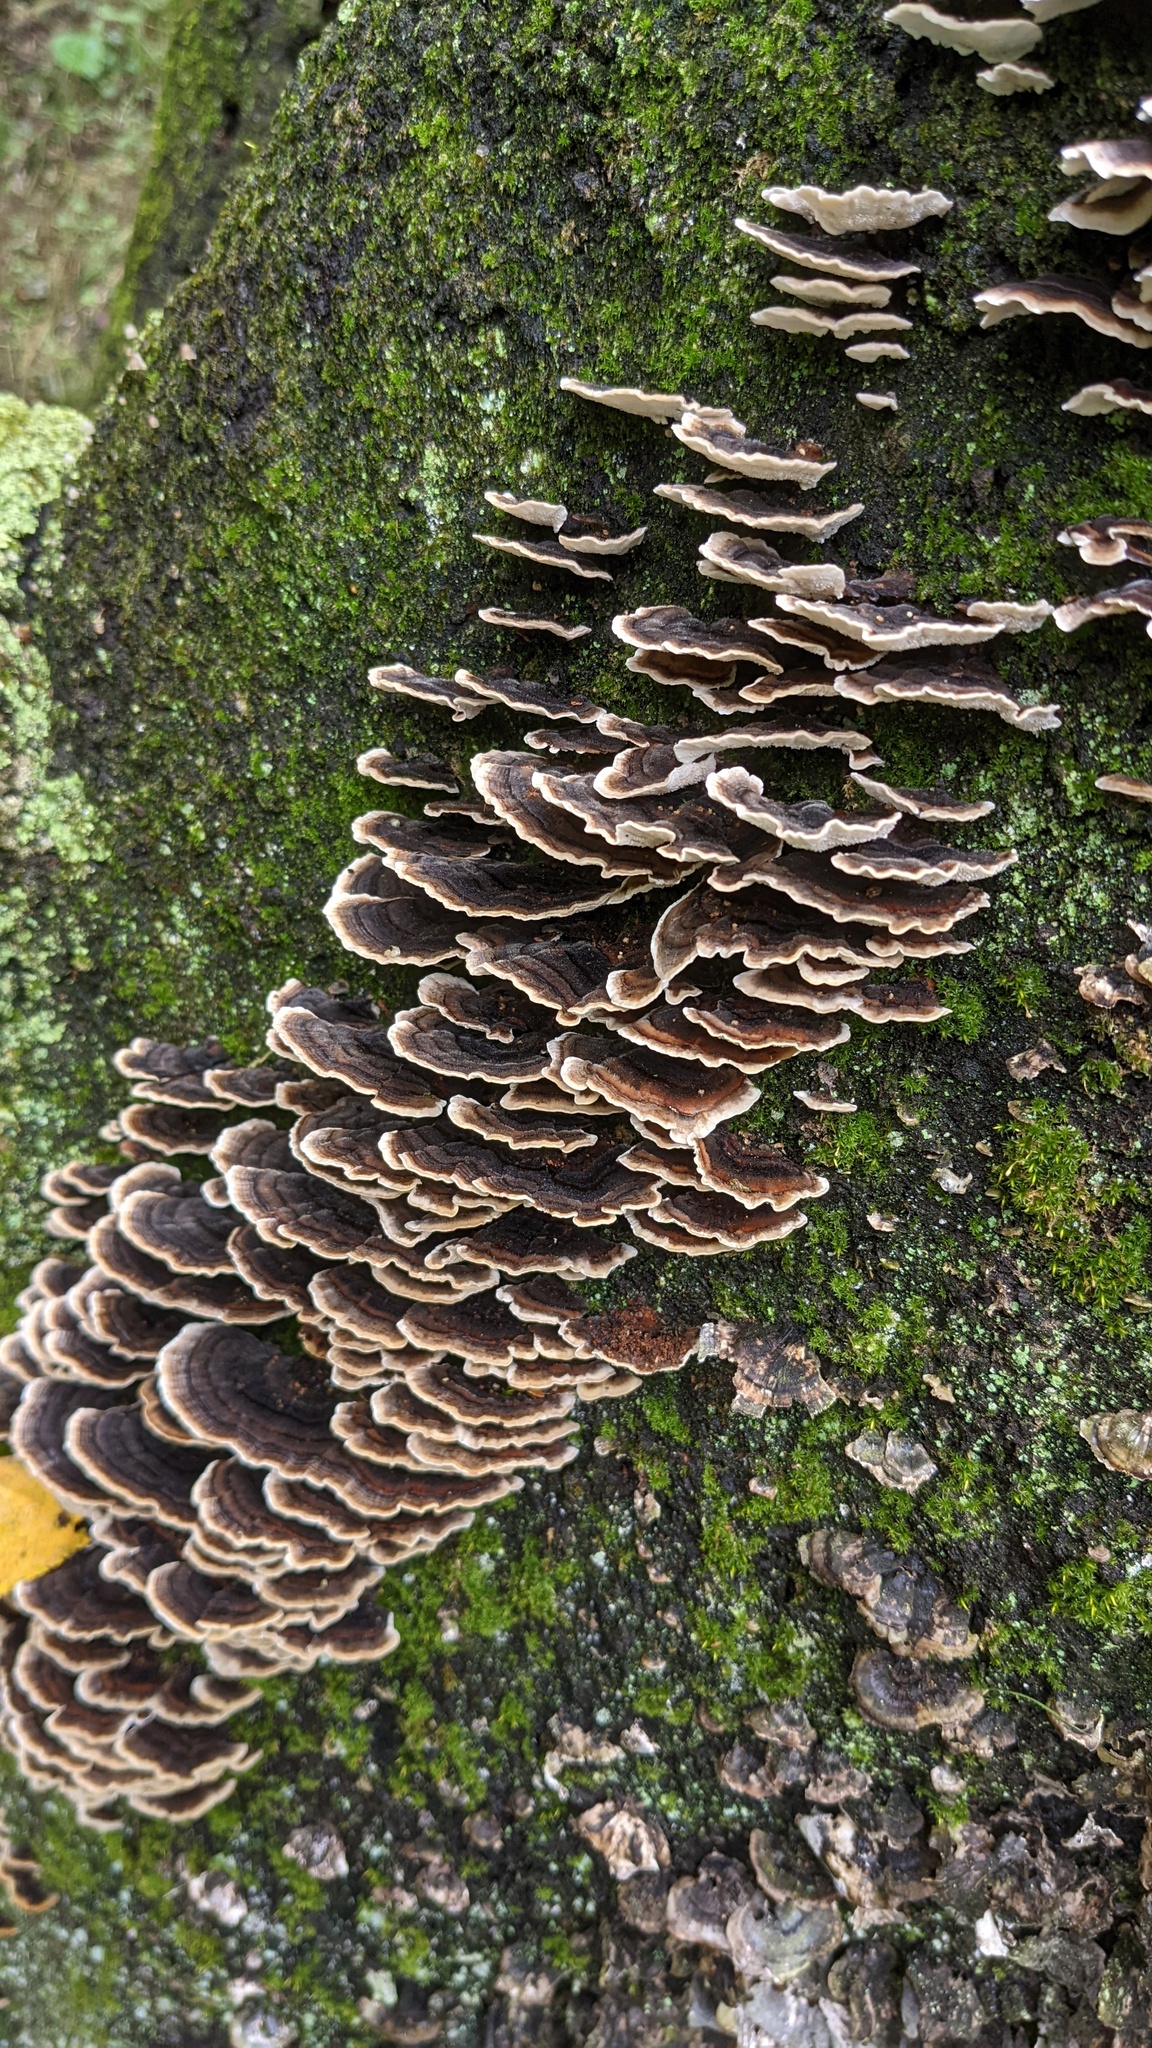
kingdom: Fungi
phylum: Basidiomycota
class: Agaricomycetes
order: Polyporales
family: Polyporaceae
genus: Trametes
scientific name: Trametes versicolor
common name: Turkeytail
